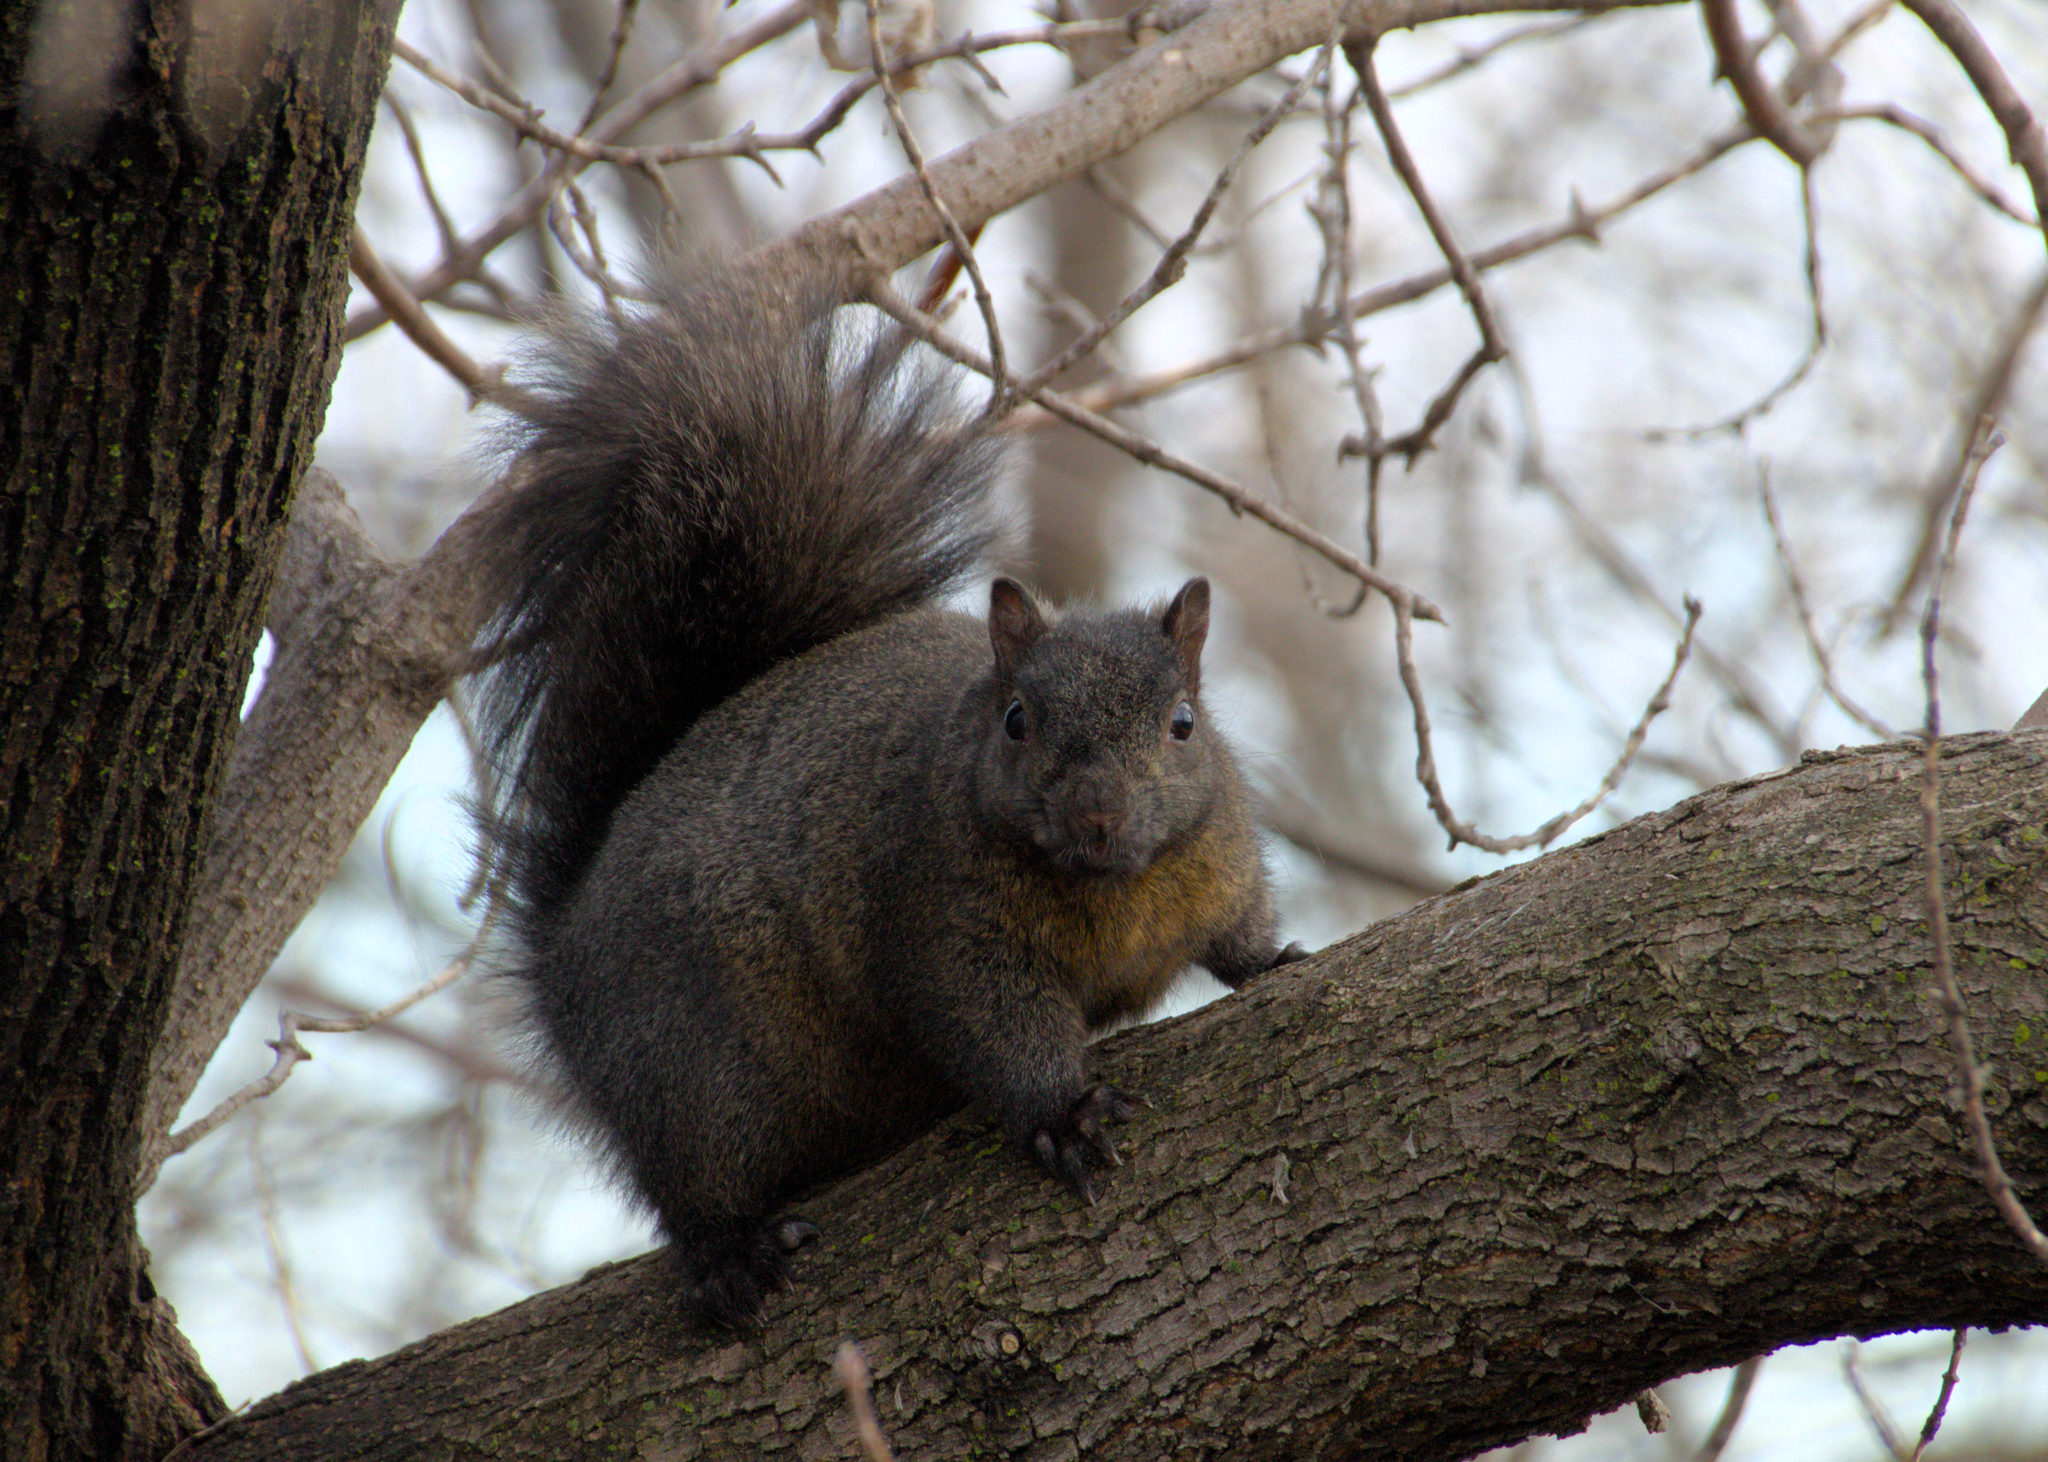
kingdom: Animalia
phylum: Chordata
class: Mammalia
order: Rodentia
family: Sciuridae
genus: Sciurus
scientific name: Sciurus carolinensis
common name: Eastern gray squirrel
